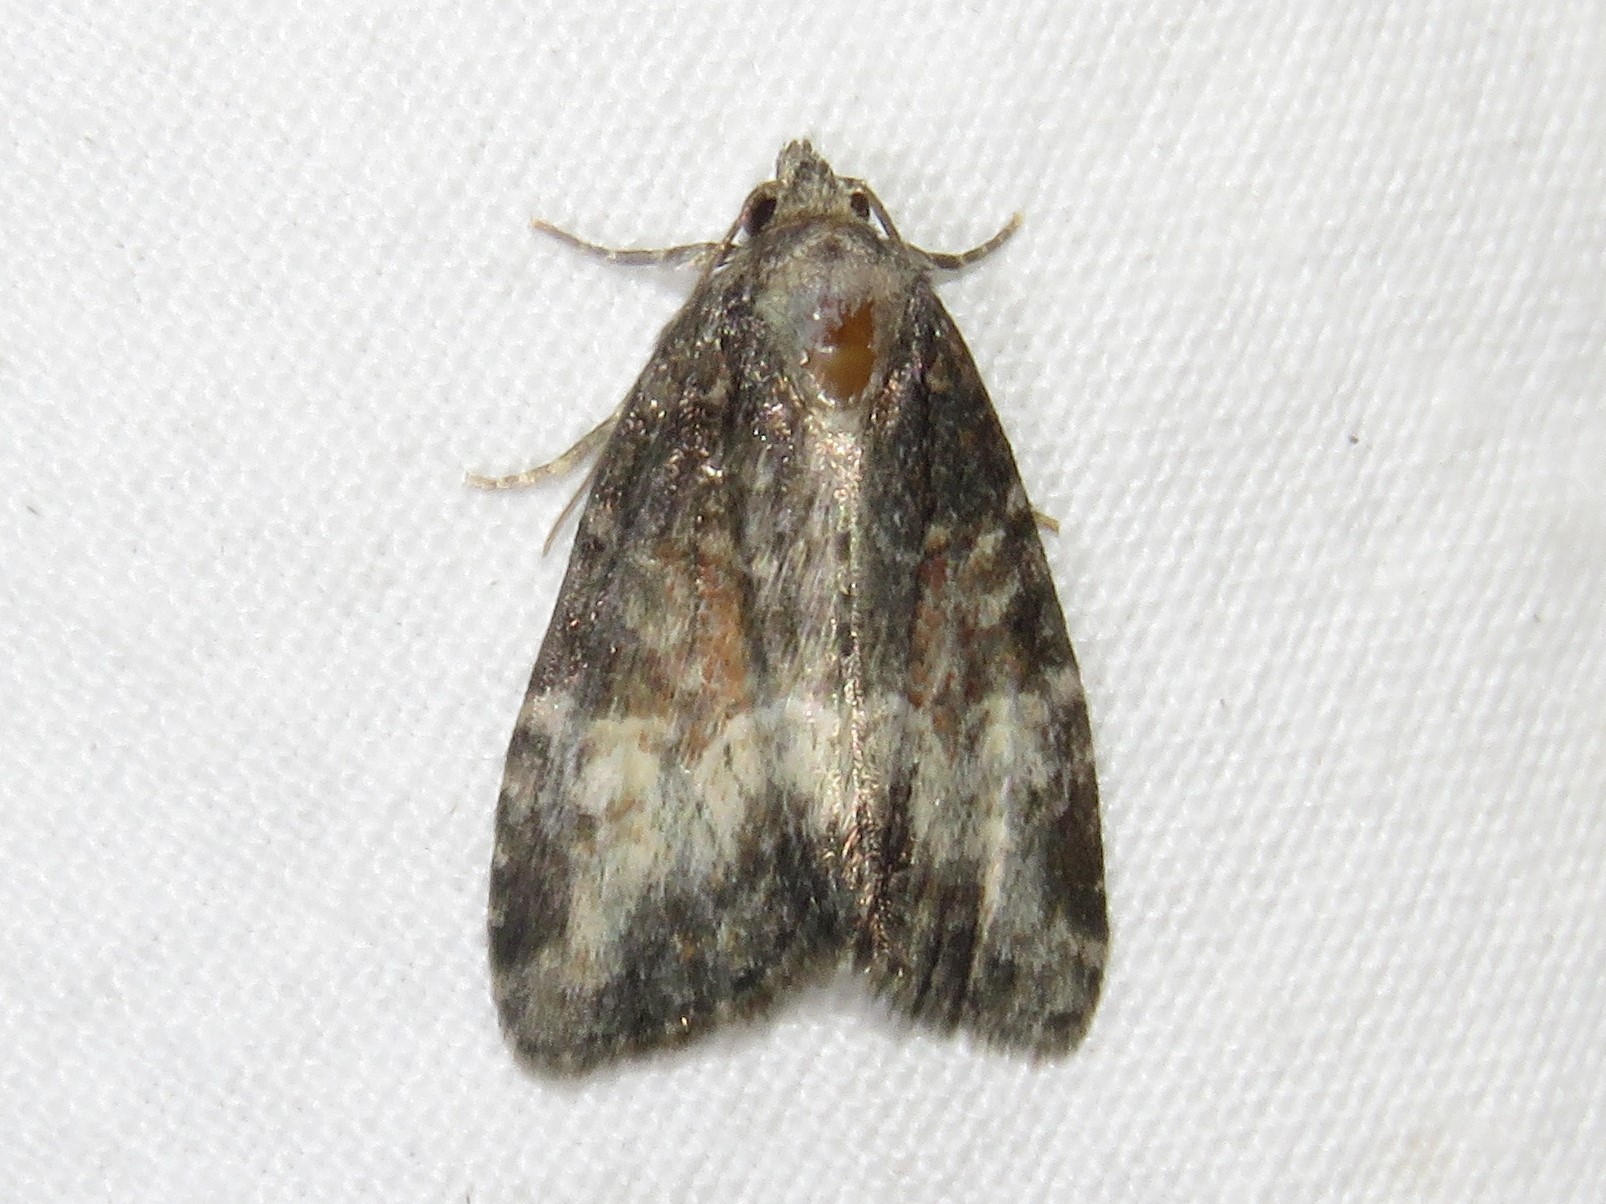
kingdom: Animalia
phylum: Arthropoda
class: Insecta
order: Lepidoptera
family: Noctuidae
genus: Neoligia
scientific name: Neoligia subjuncta
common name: Connected brocade
